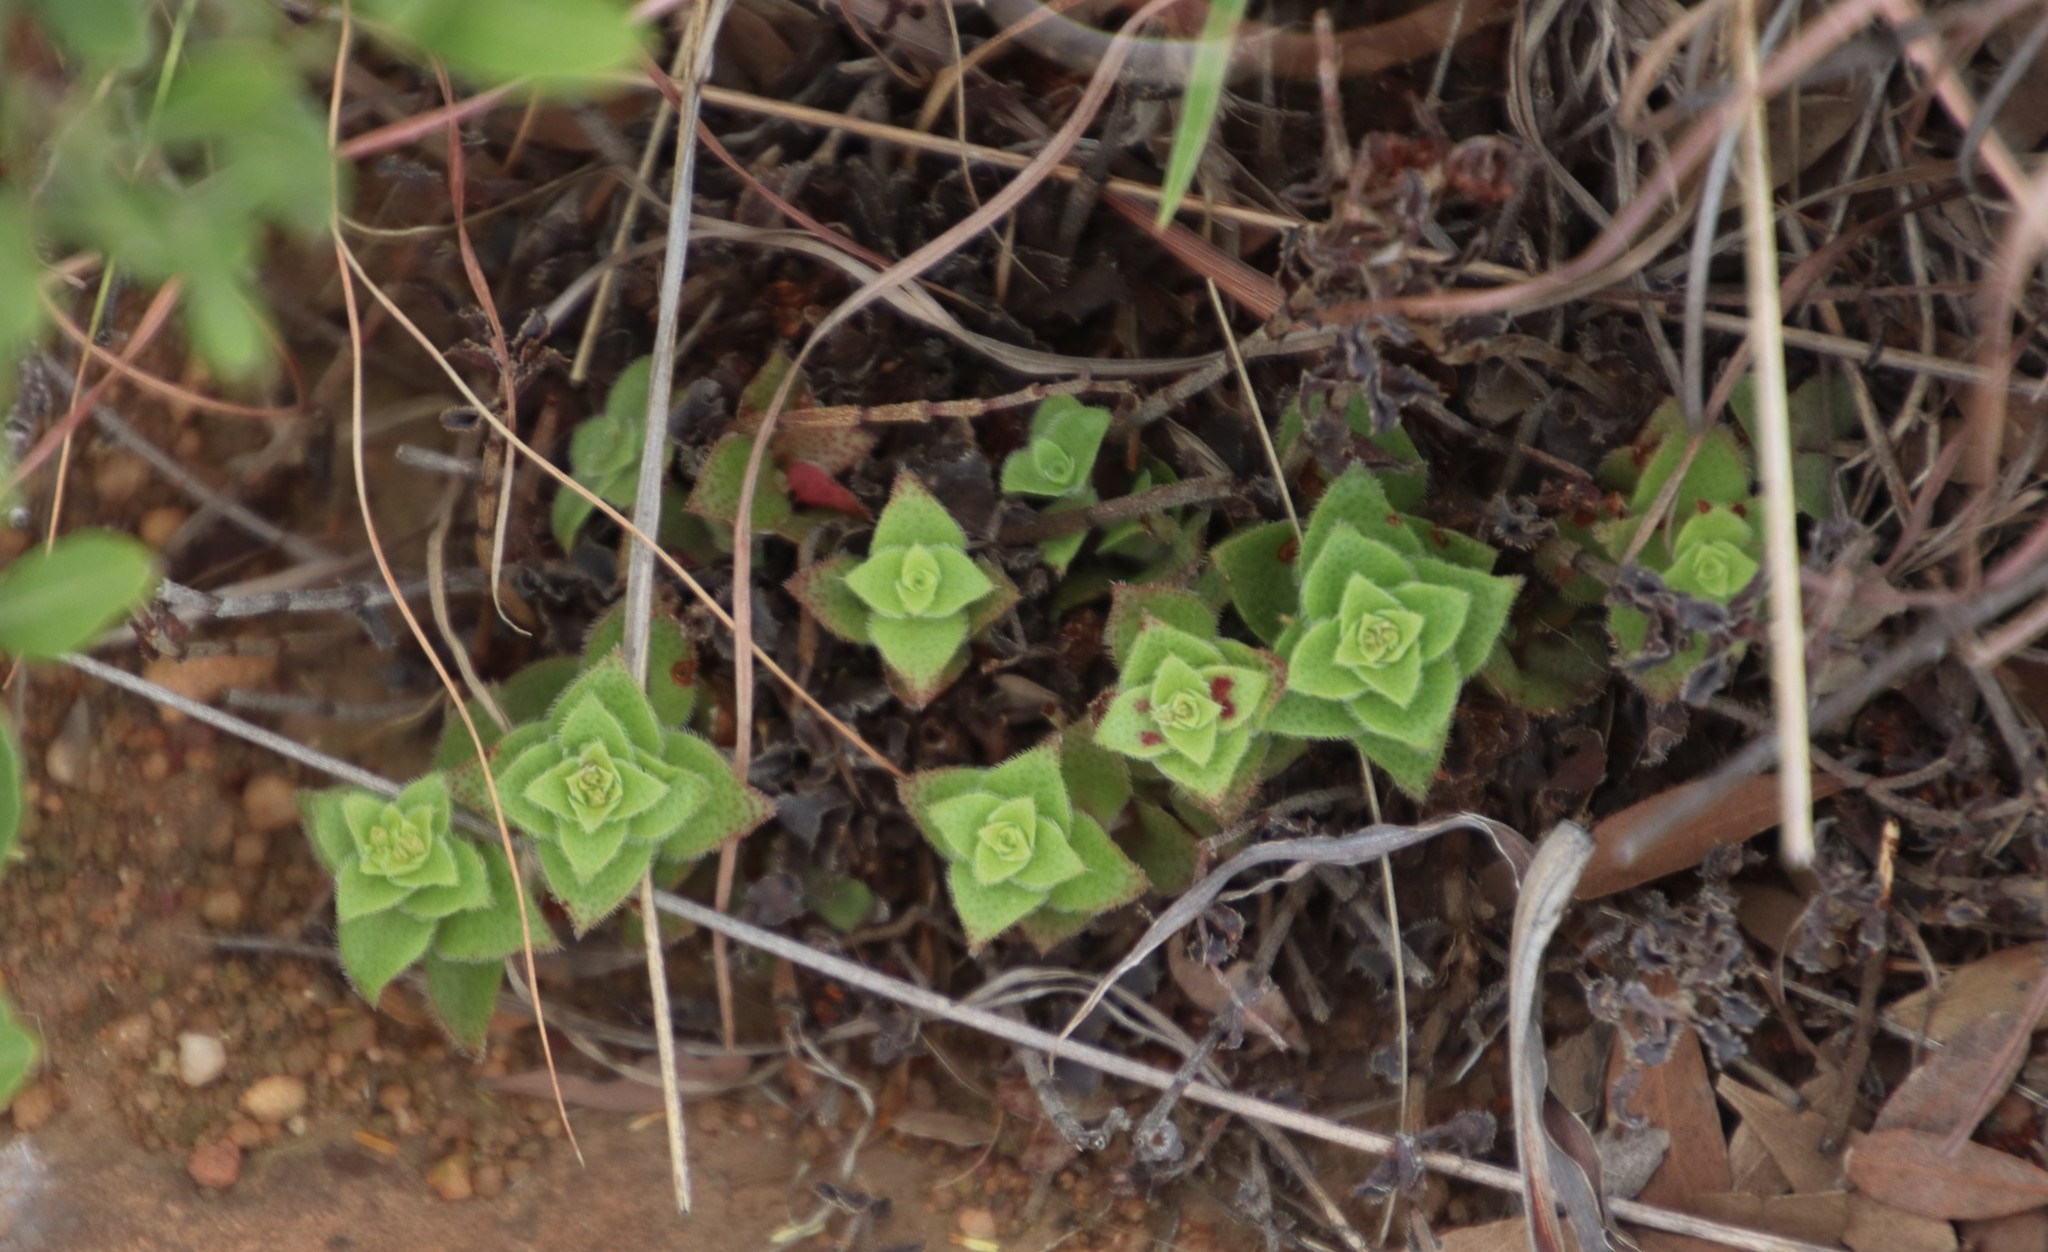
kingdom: Plantae
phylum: Tracheophyta
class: Magnoliopsida
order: Saxifragales
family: Crassulaceae
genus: Crassula
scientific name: Crassula setulosa
